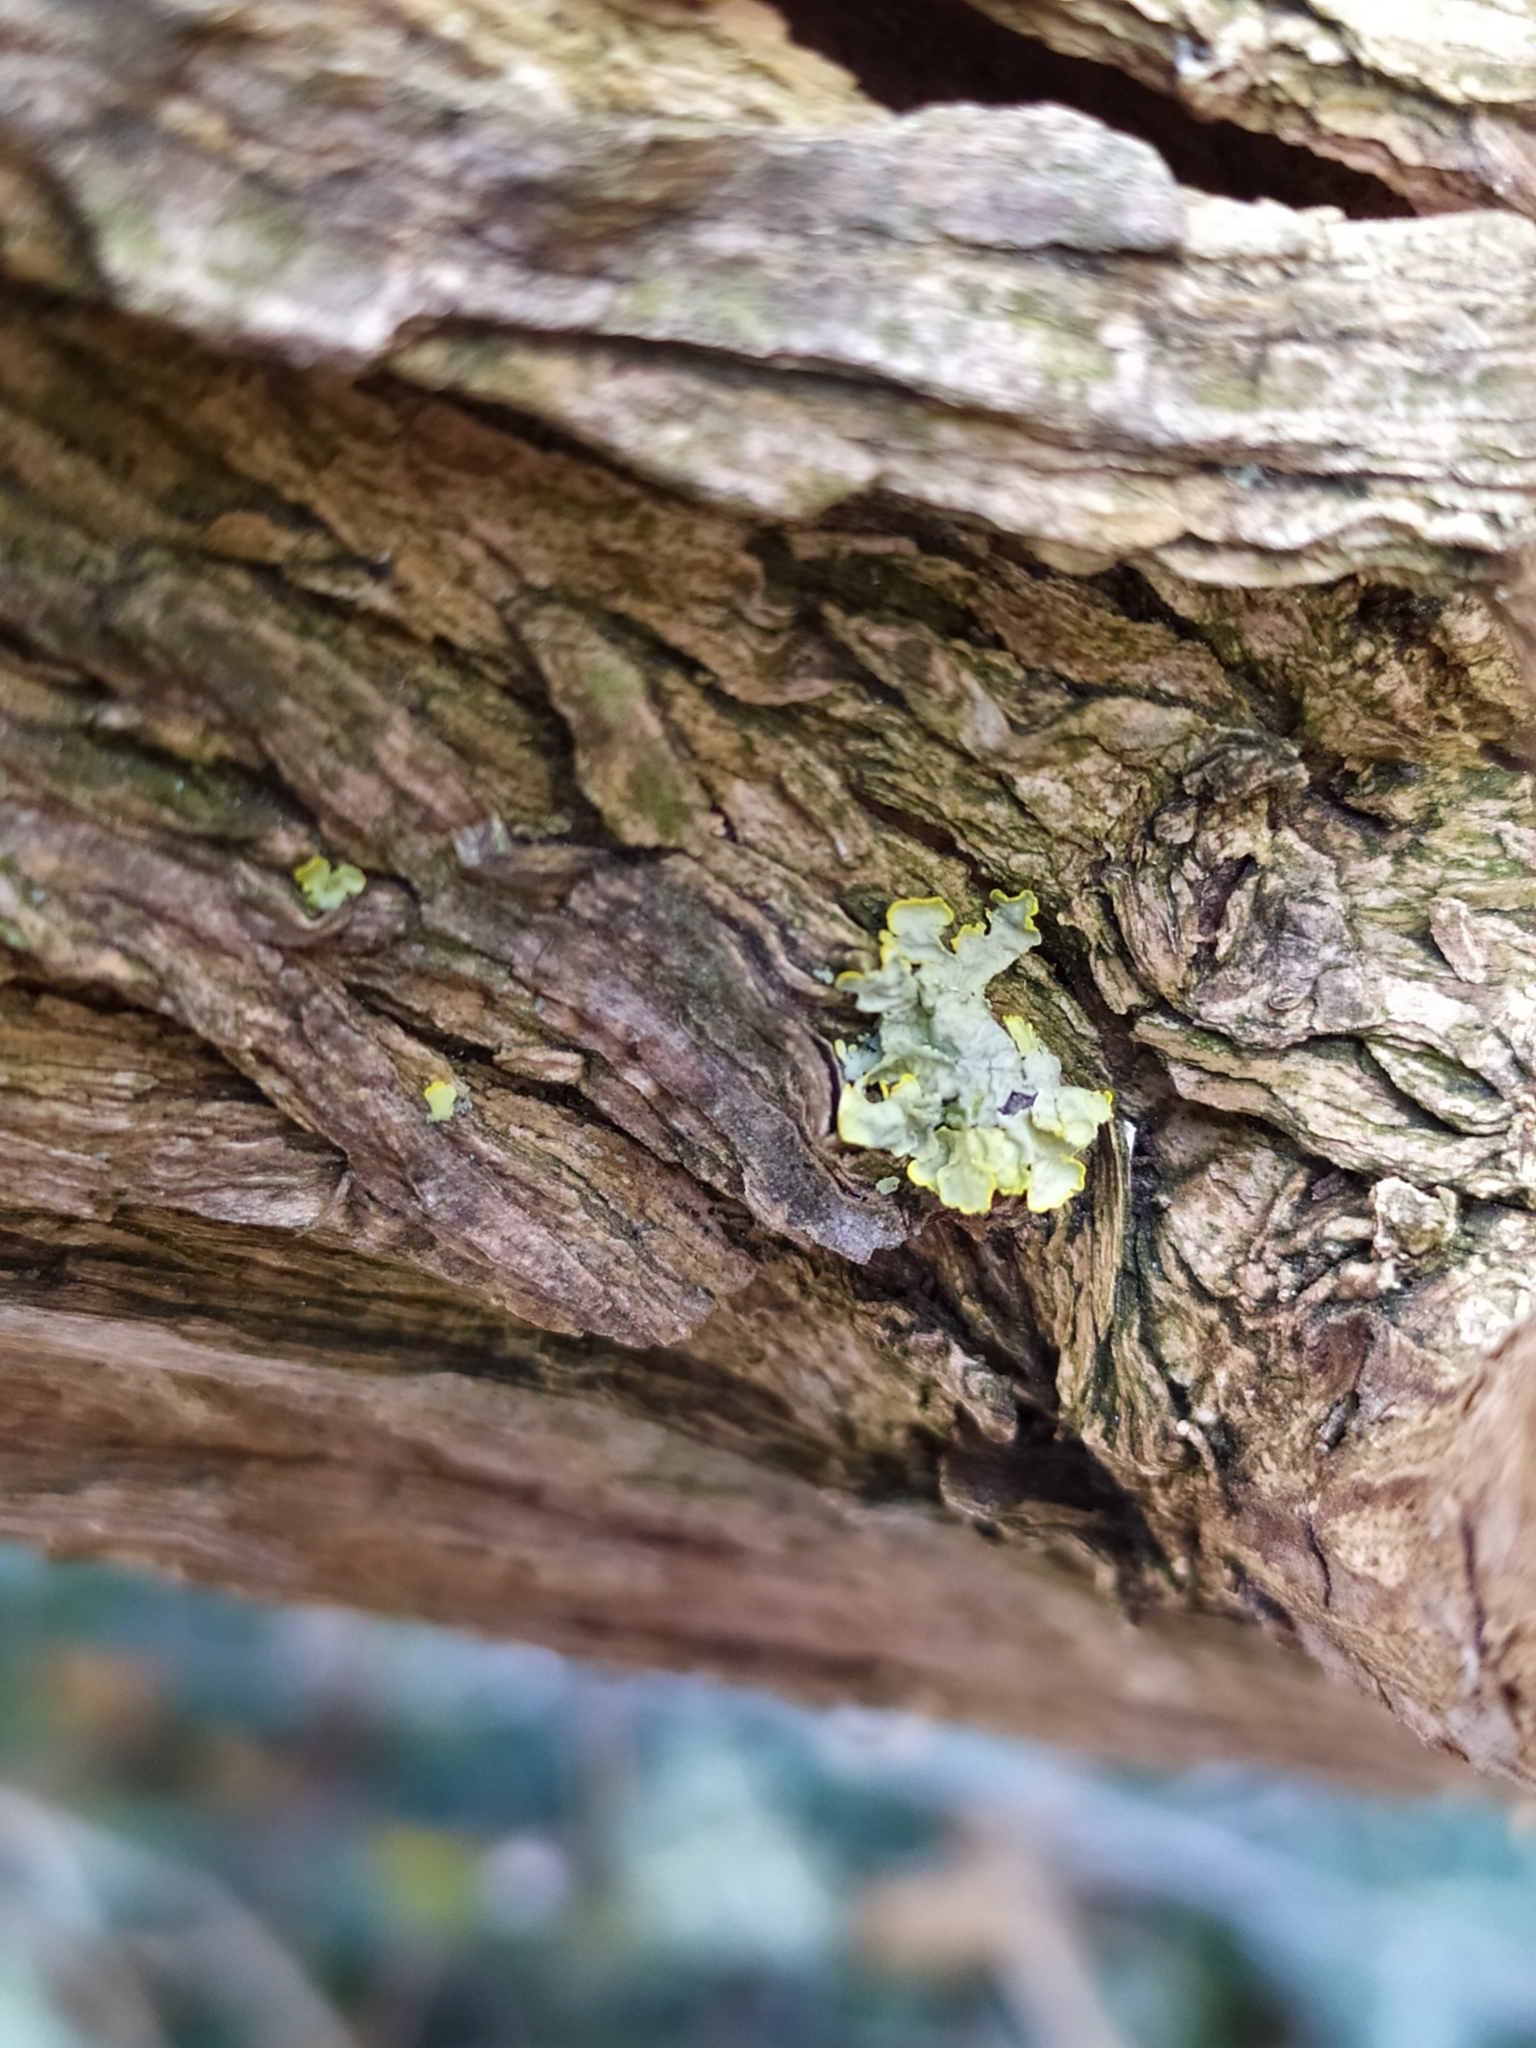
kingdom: Fungi
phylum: Ascomycota
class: Lecanoromycetes
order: Teloschistales
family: Teloschistaceae
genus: Xanthoria
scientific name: Xanthoria parietina
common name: Common orange lichen
